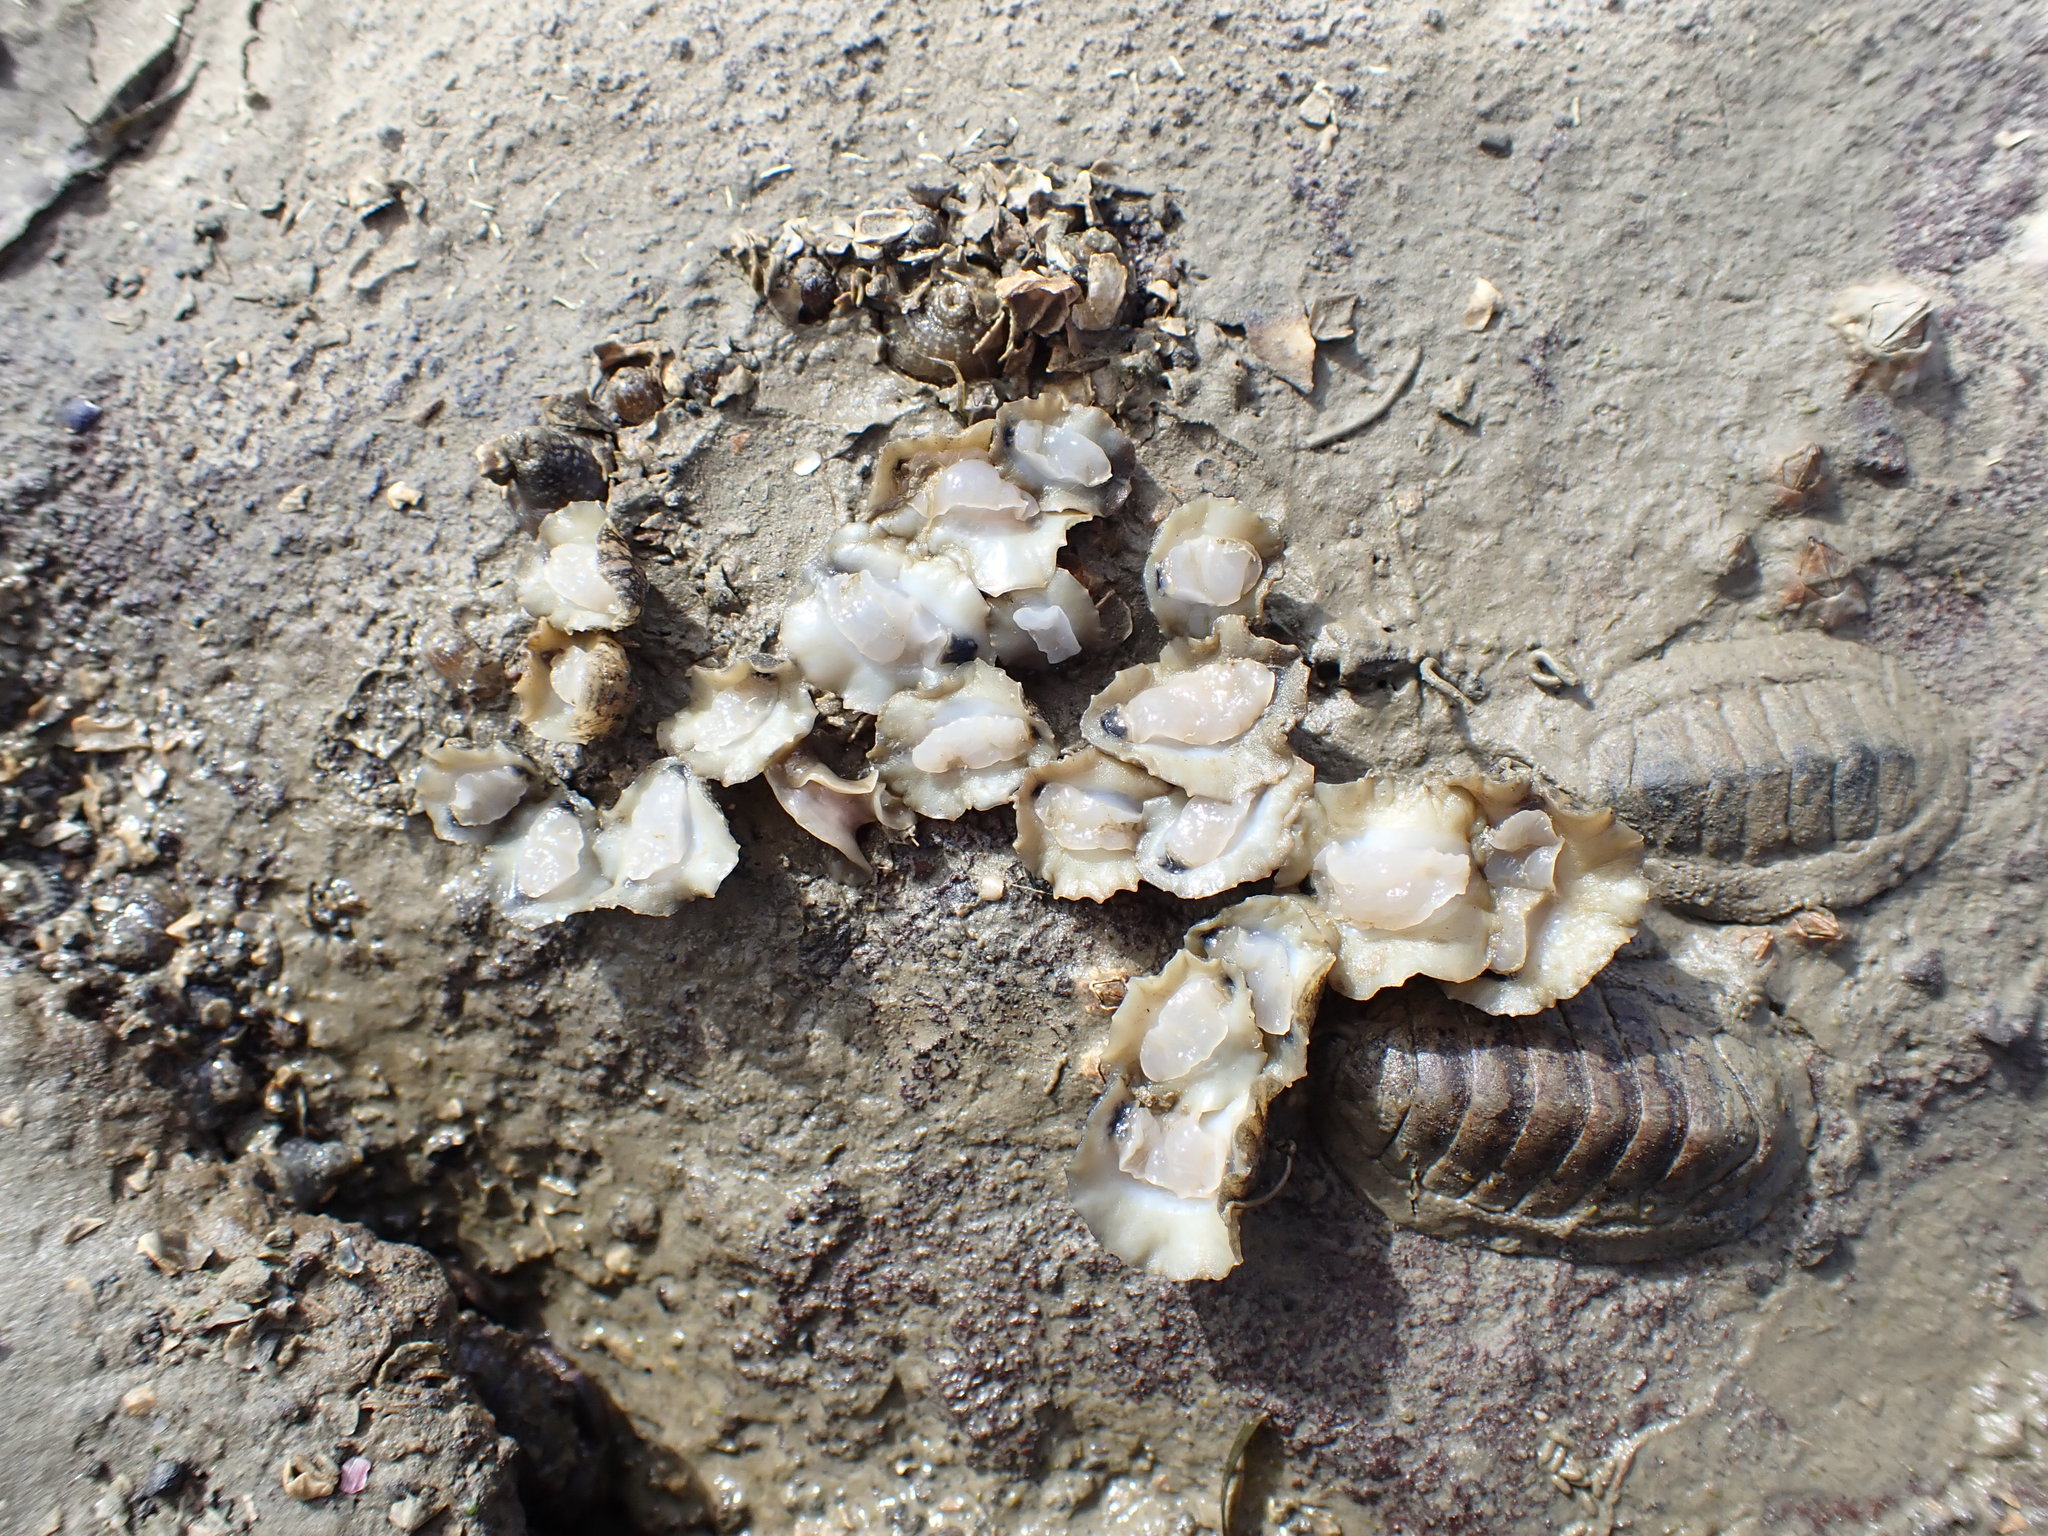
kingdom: Animalia
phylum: Mollusca
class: Gastropoda
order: Systellommatophora
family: Onchidiidae
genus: Onchidella
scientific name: Onchidella nigricans
